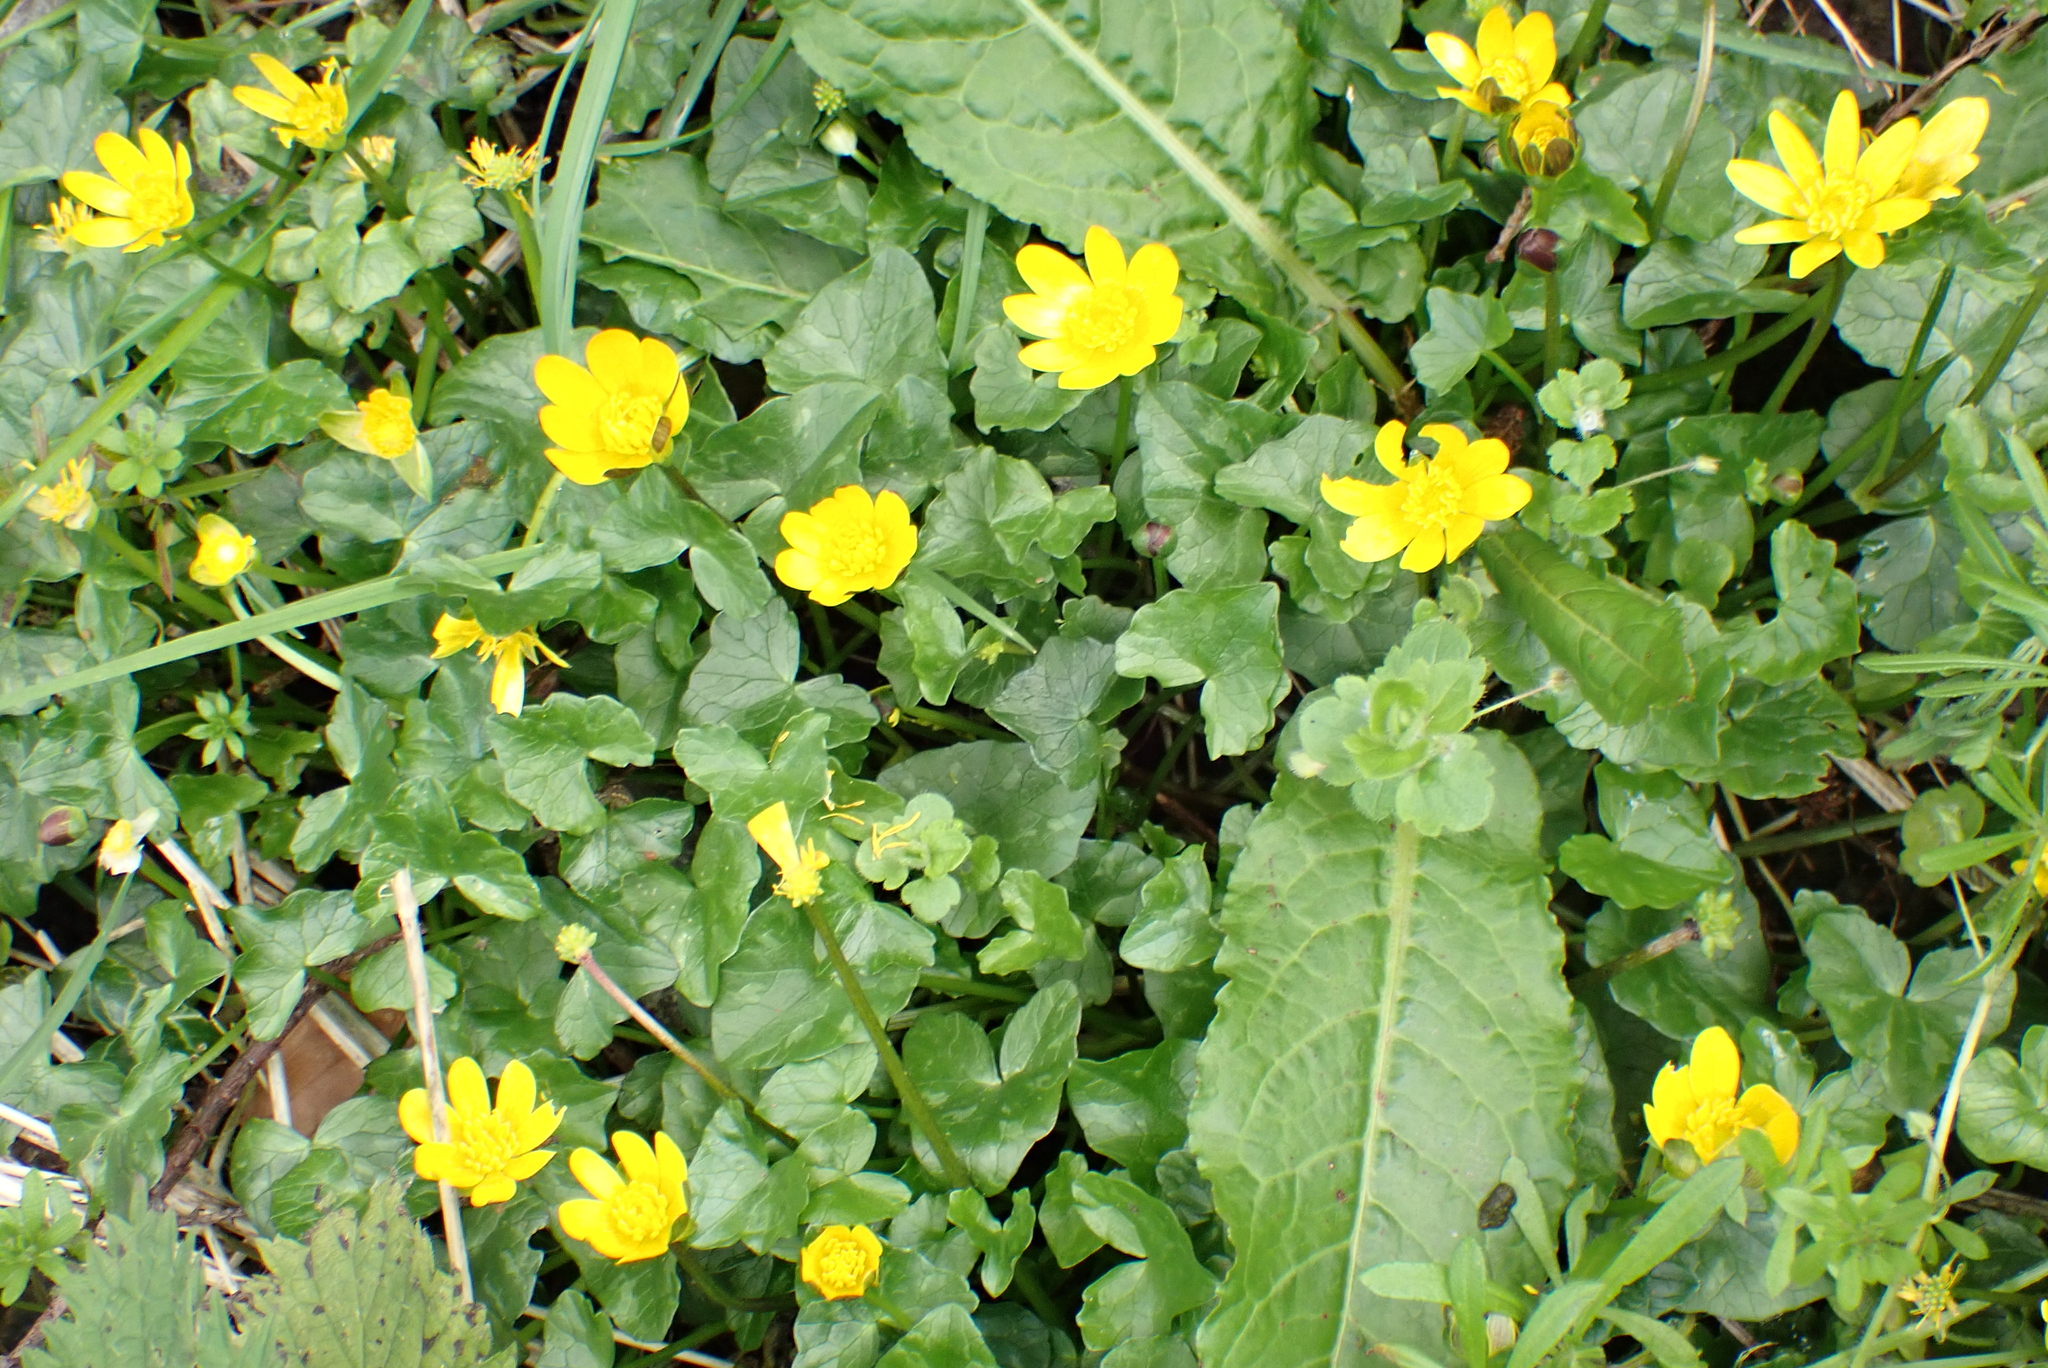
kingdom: Plantae
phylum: Tracheophyta
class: Magnoliopsida
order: Ranunculales
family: Ranunculaceae
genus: Ficaria
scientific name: Ficaria verna
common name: Lesser celandine
